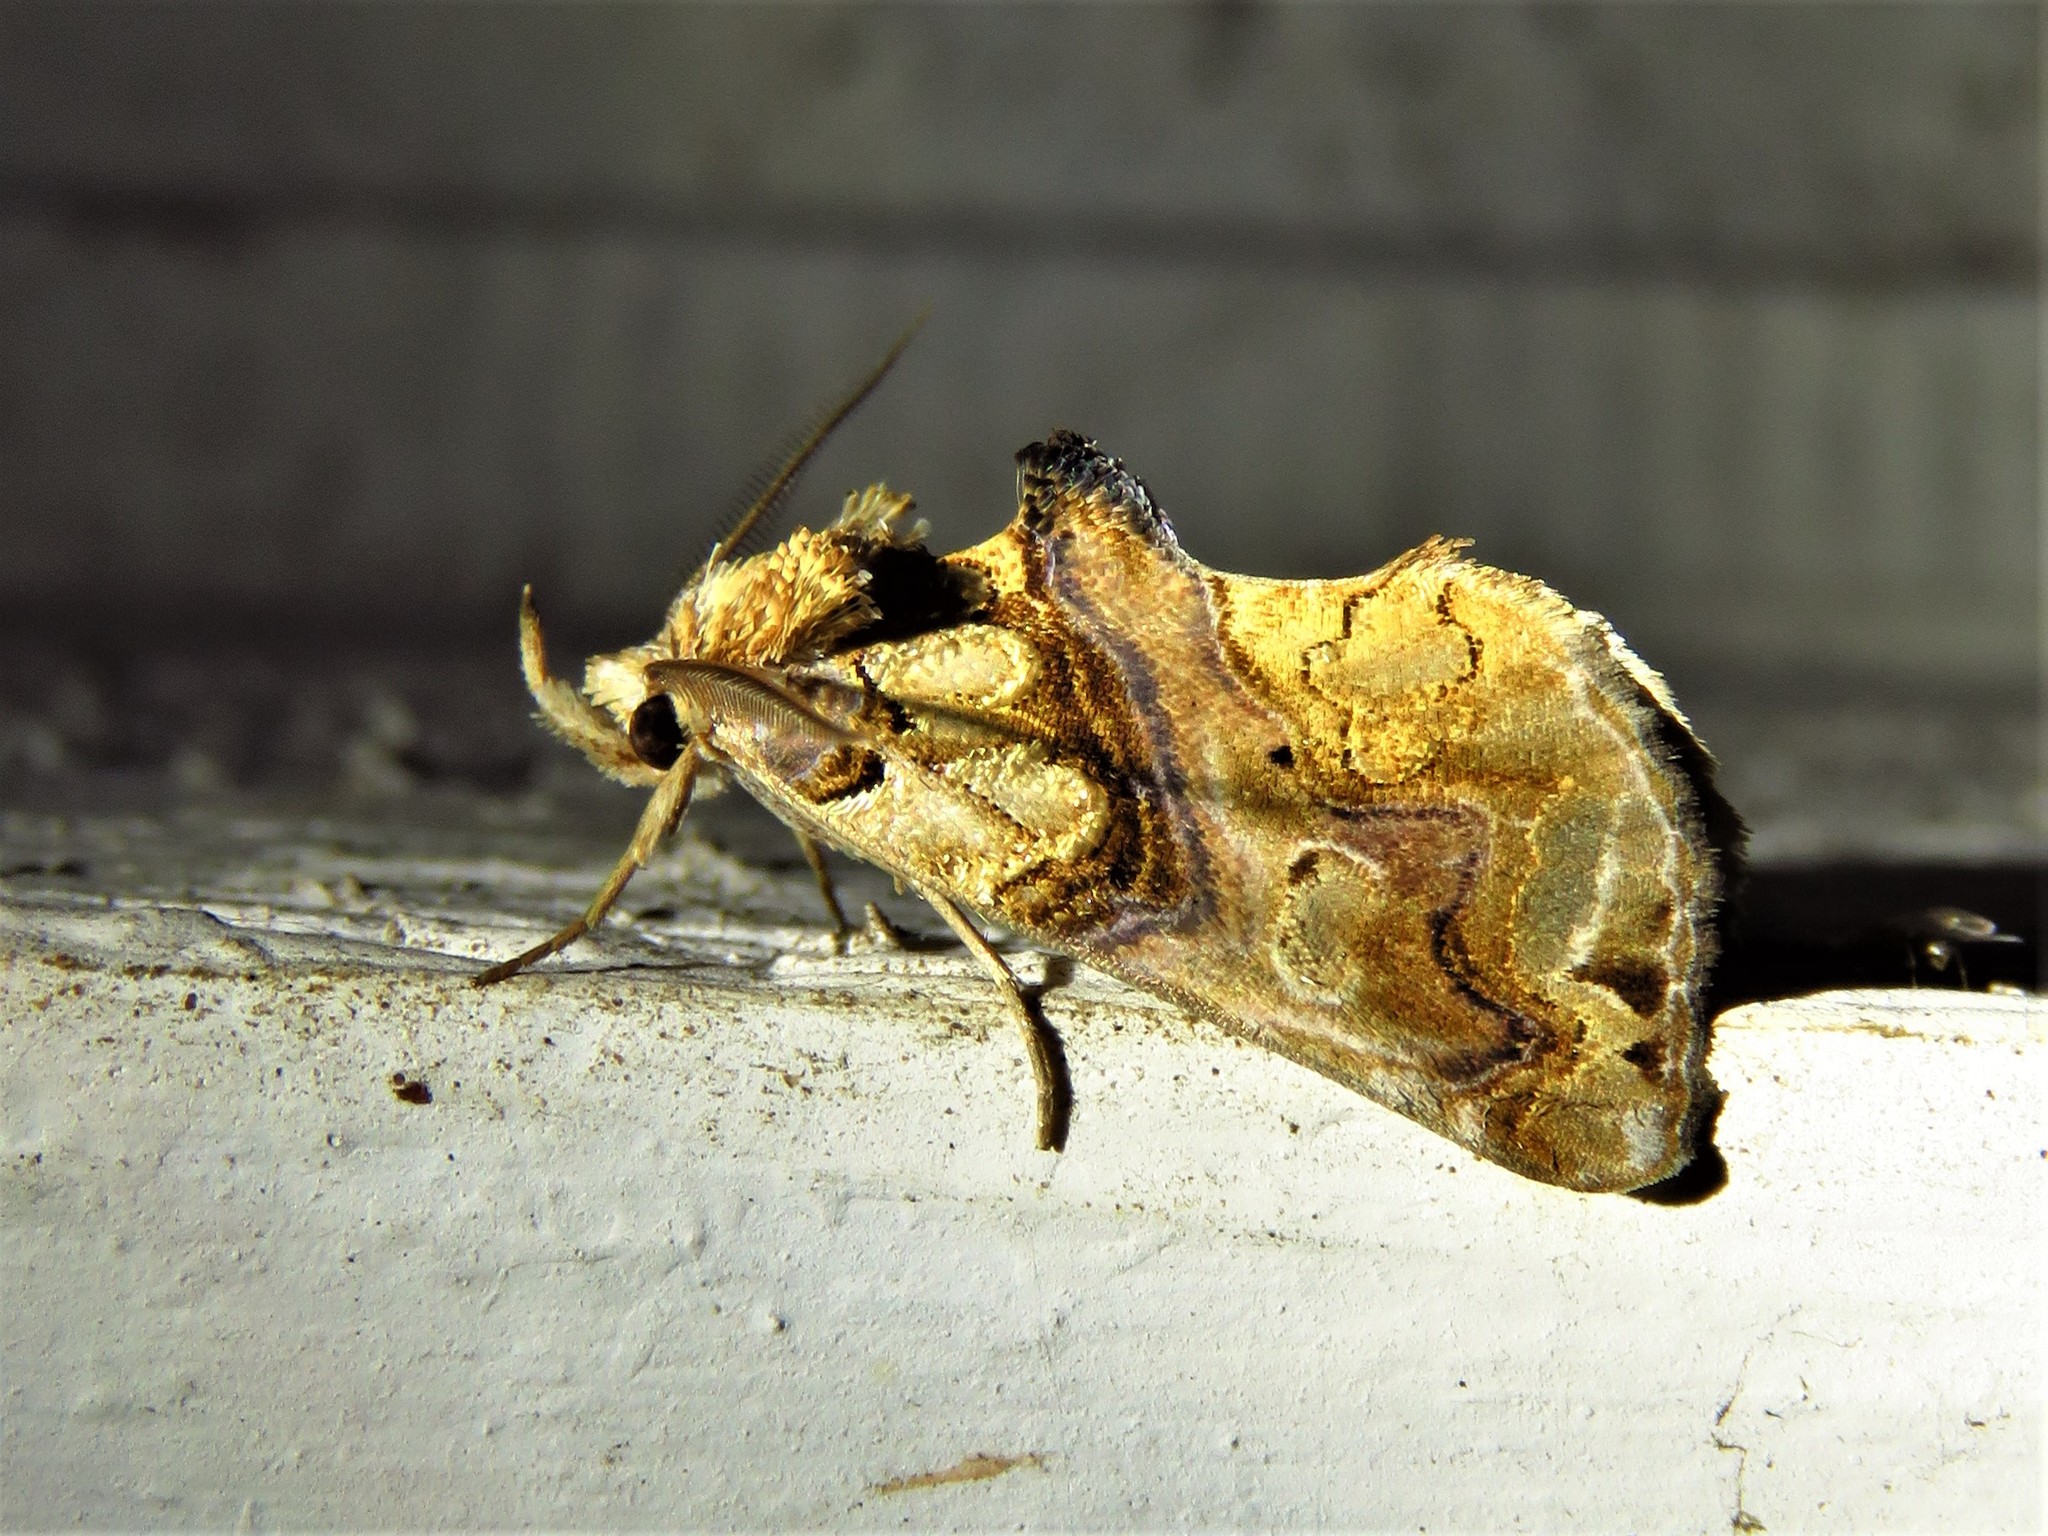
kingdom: Animalia
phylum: Arthropoda
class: Insecta
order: Lepidoptera
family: Erebidae
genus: Plusiodonta
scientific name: Plusiodonta compressipalpis
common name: Moonseed moth
